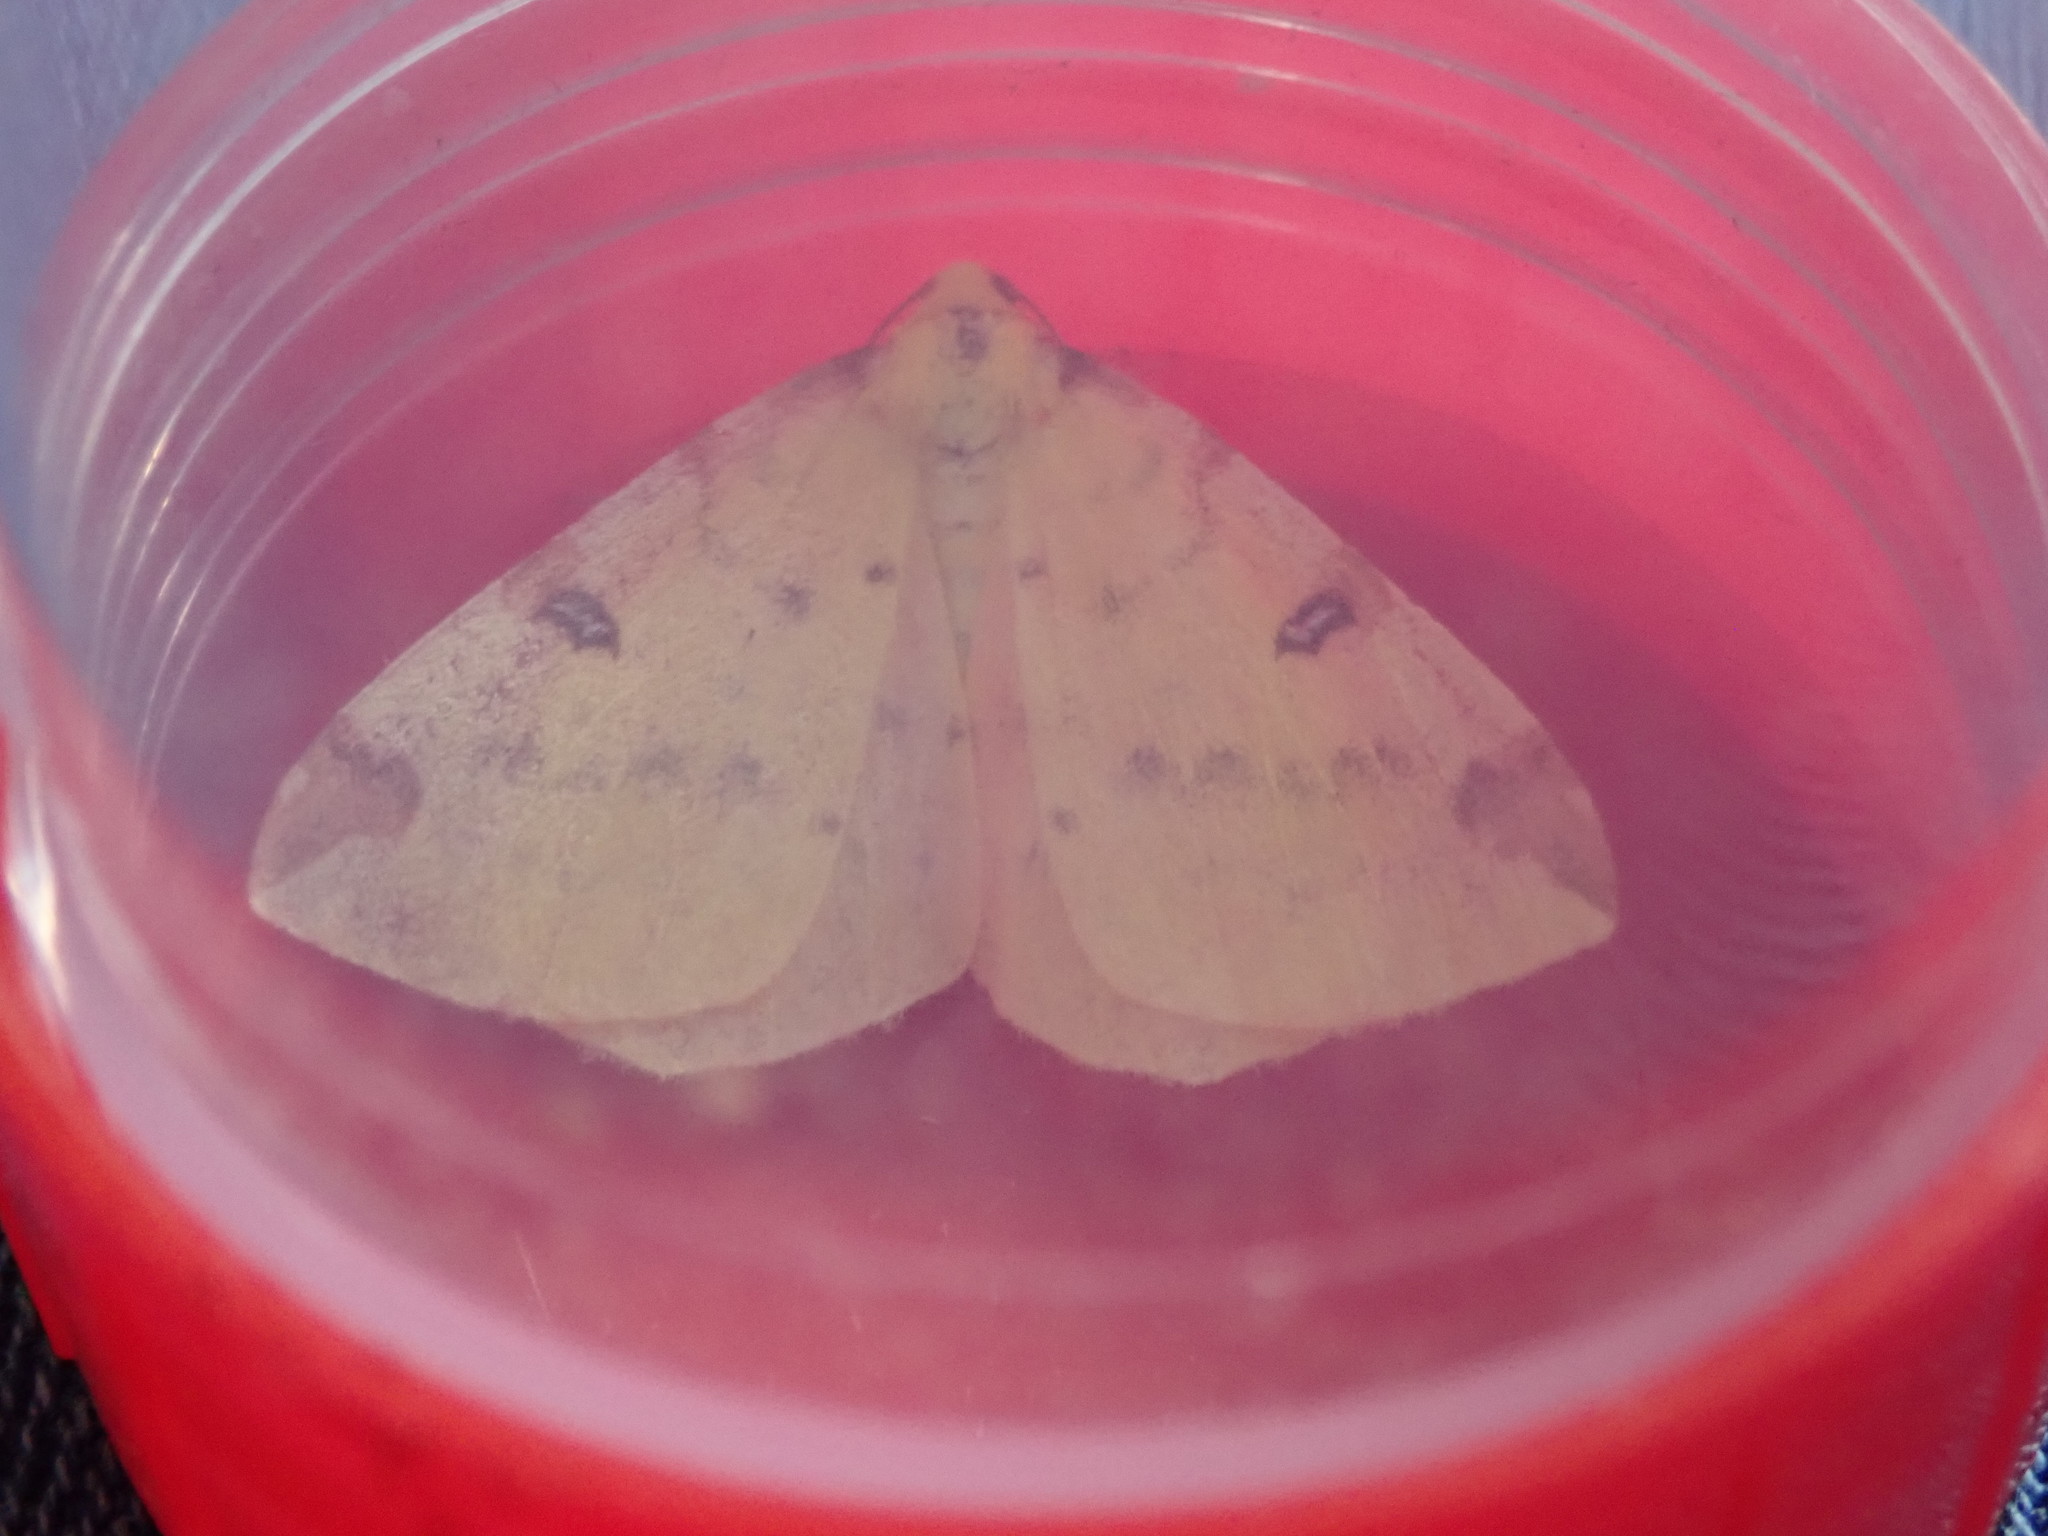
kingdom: Animalia
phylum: Arthropoda
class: Insecta
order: Lepidoptera
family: Geometridae
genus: Opisthograptis
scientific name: Opisthograptis luteolata
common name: Brimstone moth
